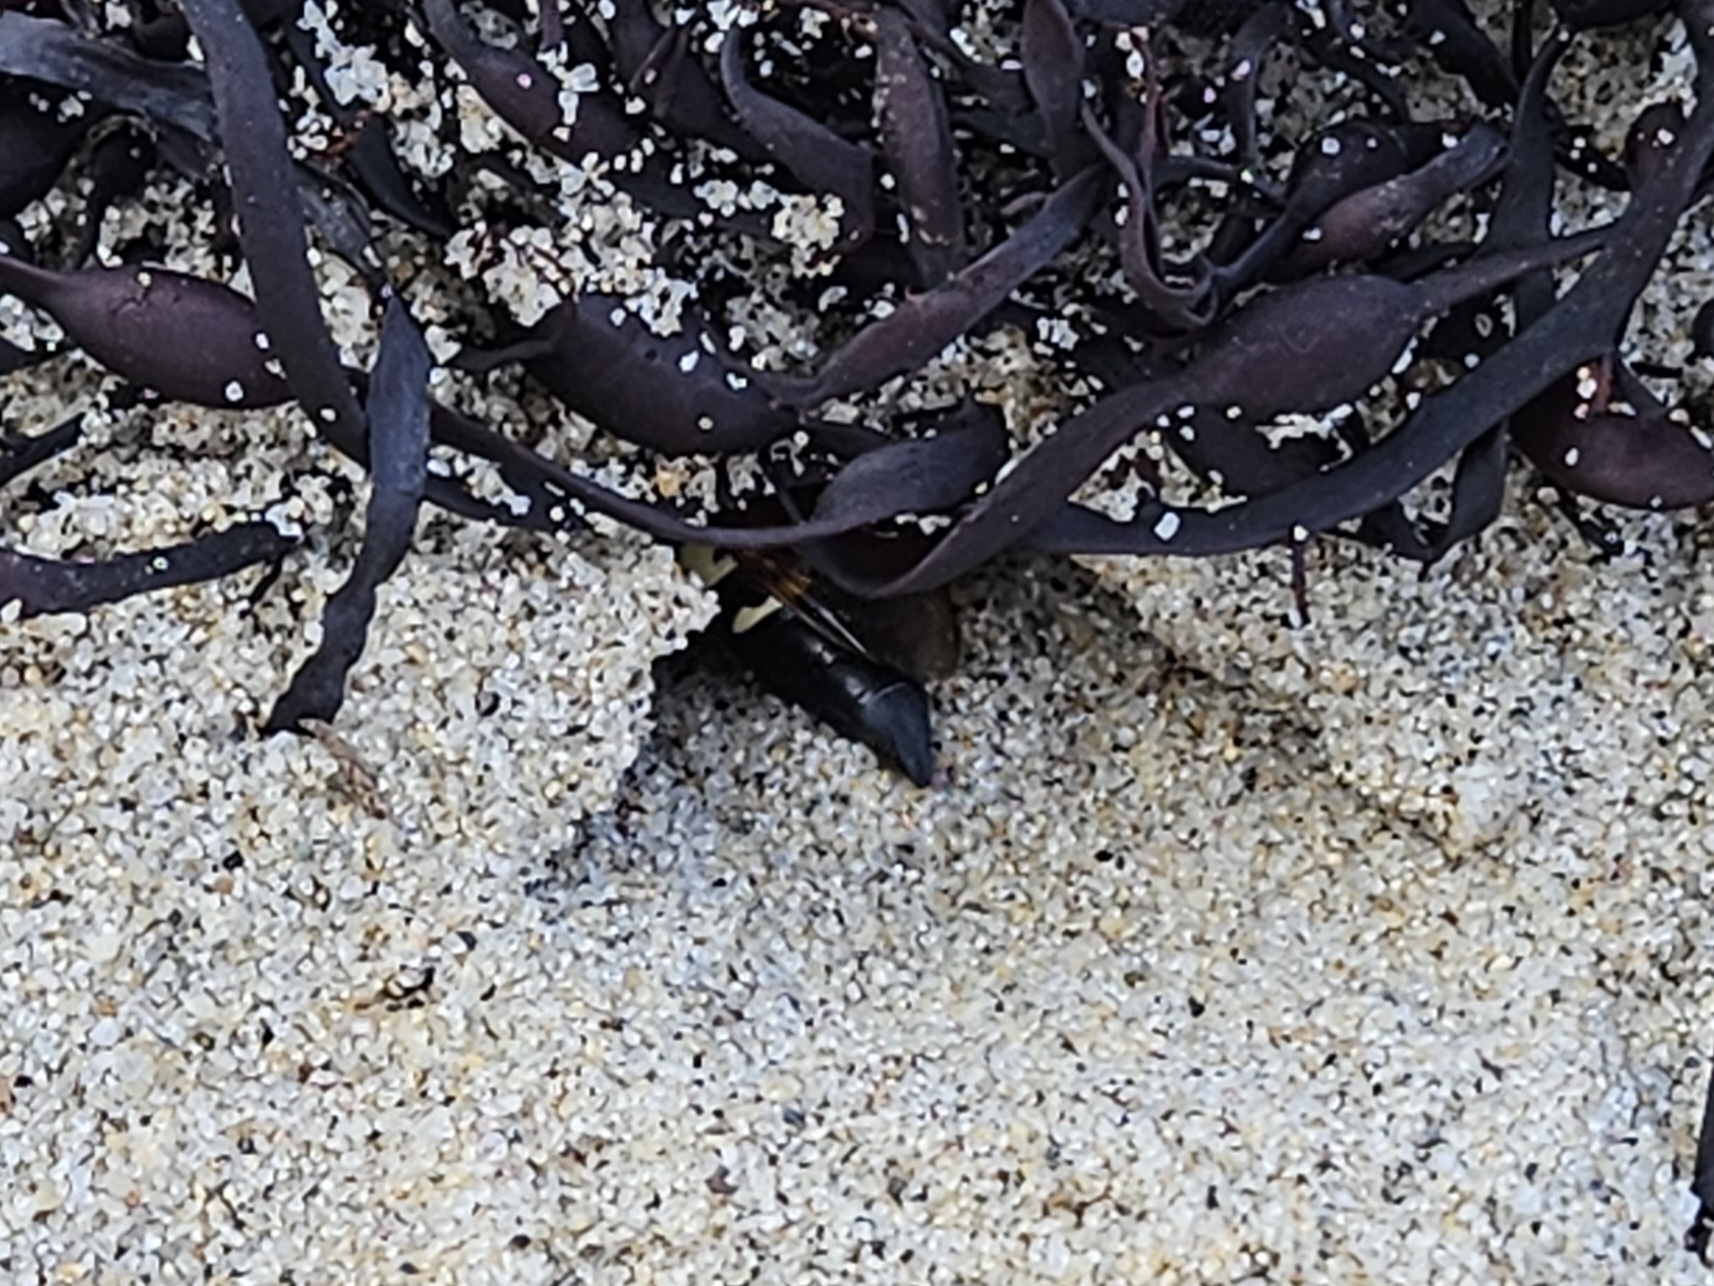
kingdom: Animalia
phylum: Arthropoda
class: Insecta
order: Hymenoptera
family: Crabronidae
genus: Sphecius
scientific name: Sphecius speciosus
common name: Cicada killer
